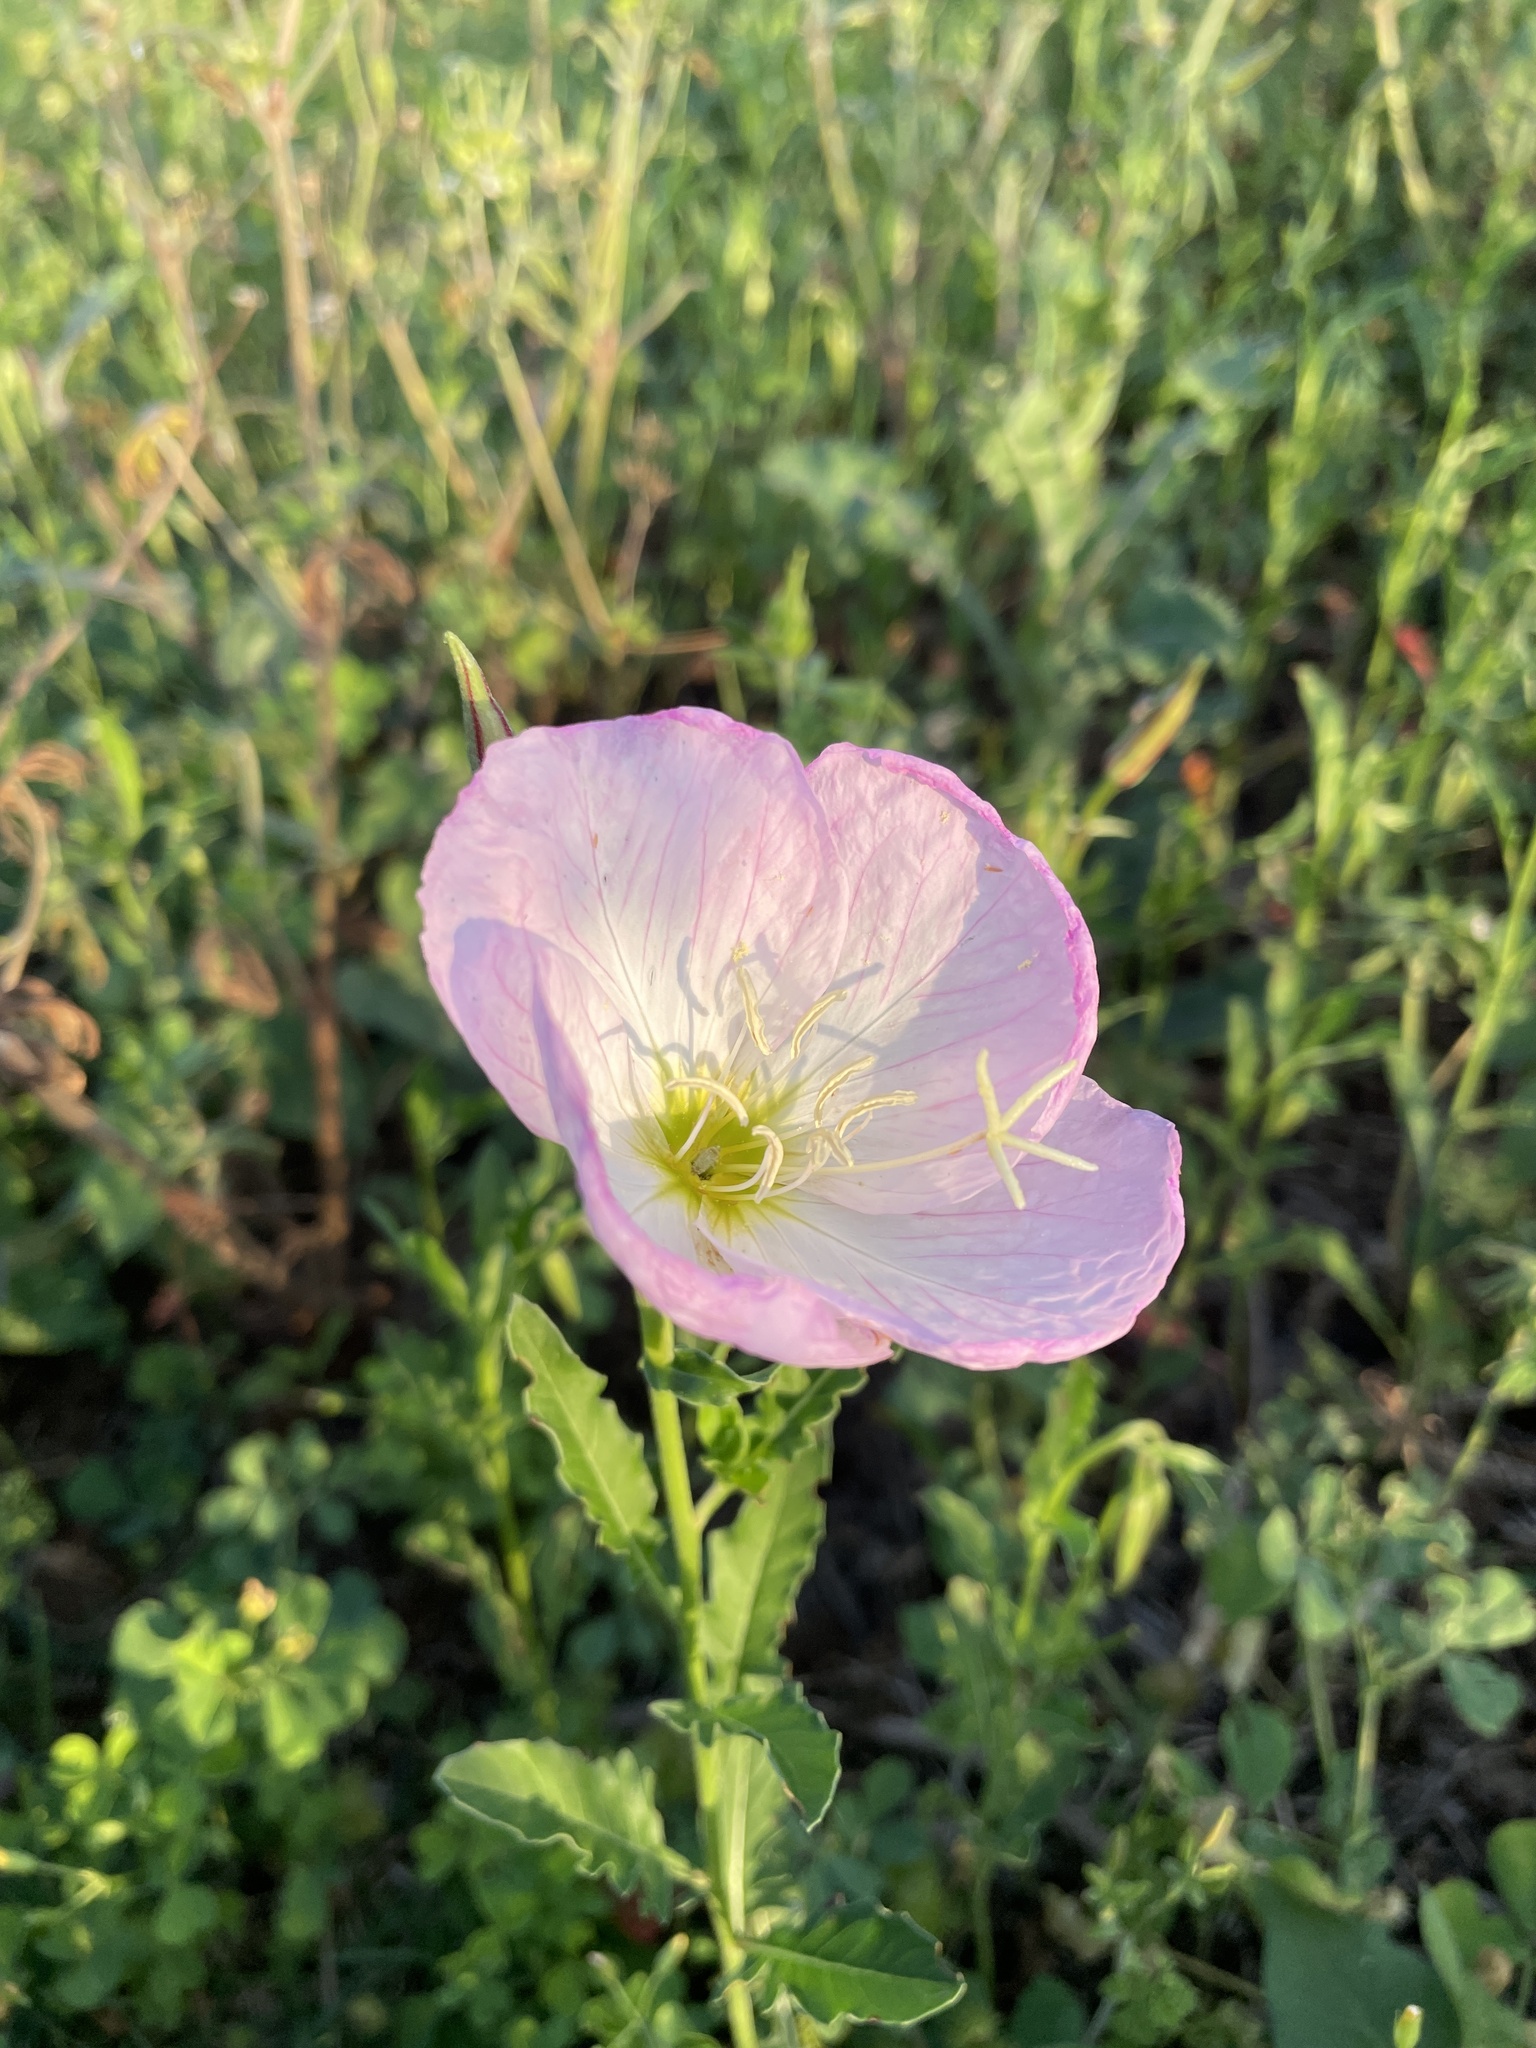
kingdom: Plantae
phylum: Tracheophyta
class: Magnoliopsida
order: Myrtales
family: Onagraceae
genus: Oenothera
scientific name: Oenothera speciosa
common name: White evening-primrose
